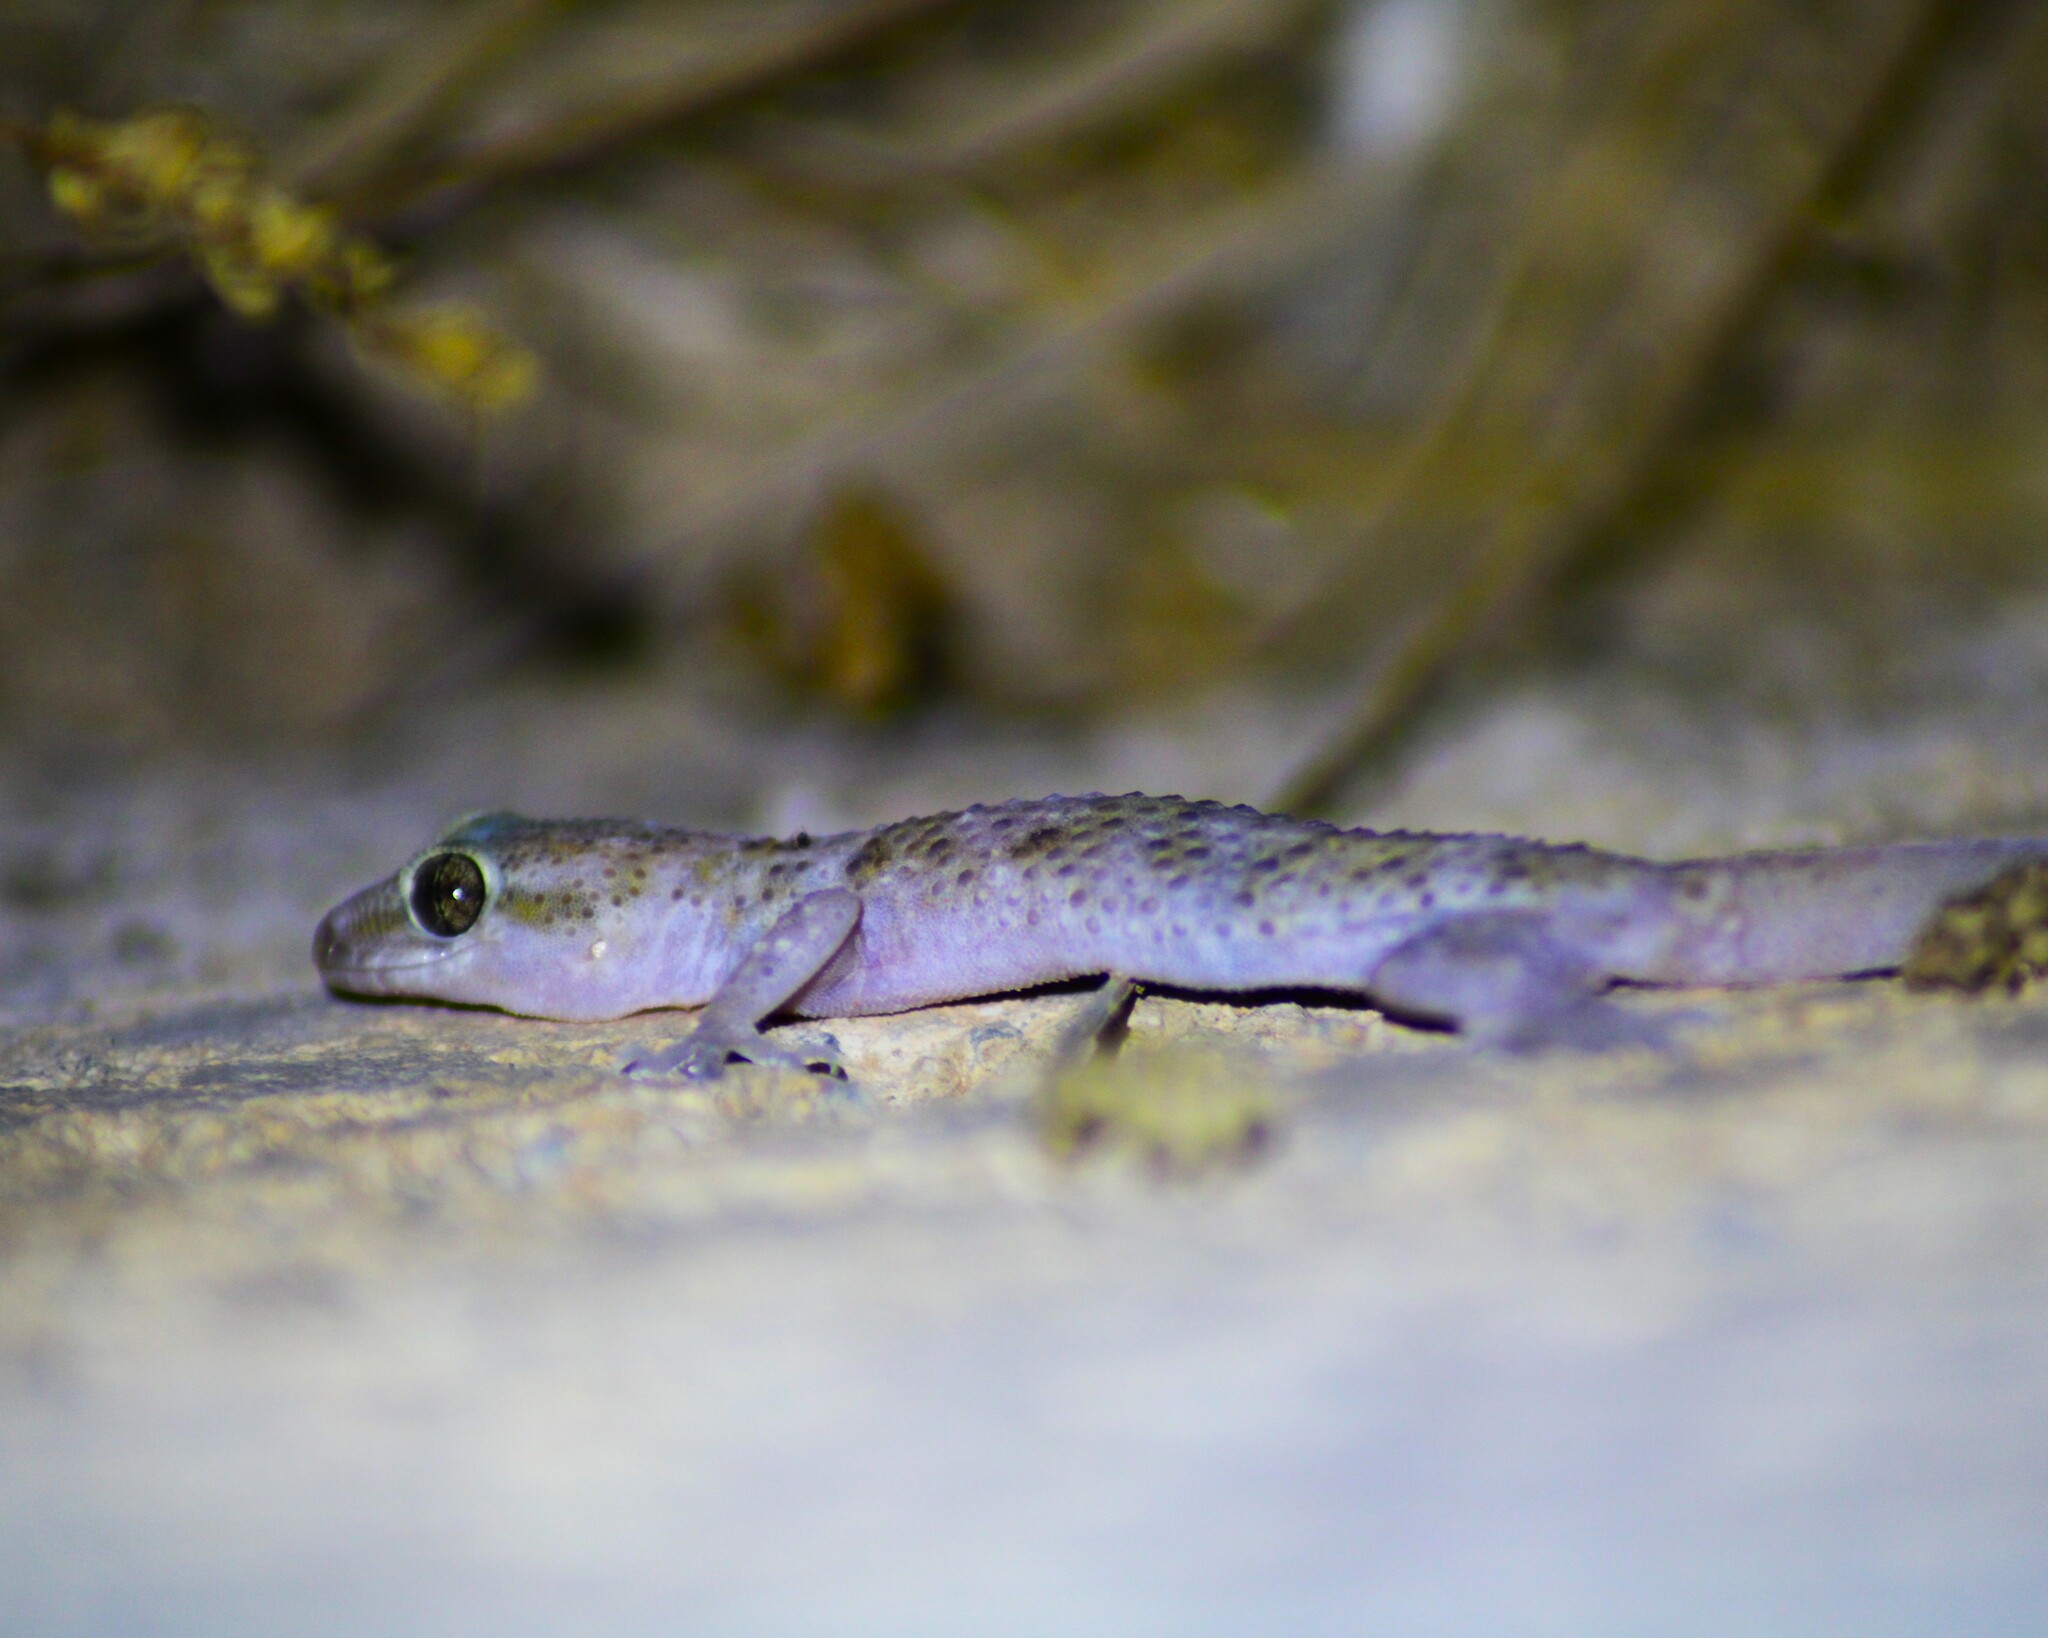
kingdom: Animalia
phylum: Chordata
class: Squamata
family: Gekkonidae
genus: Hemidactylus
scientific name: Hemidactylus turcicus
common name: Turkish gecko
